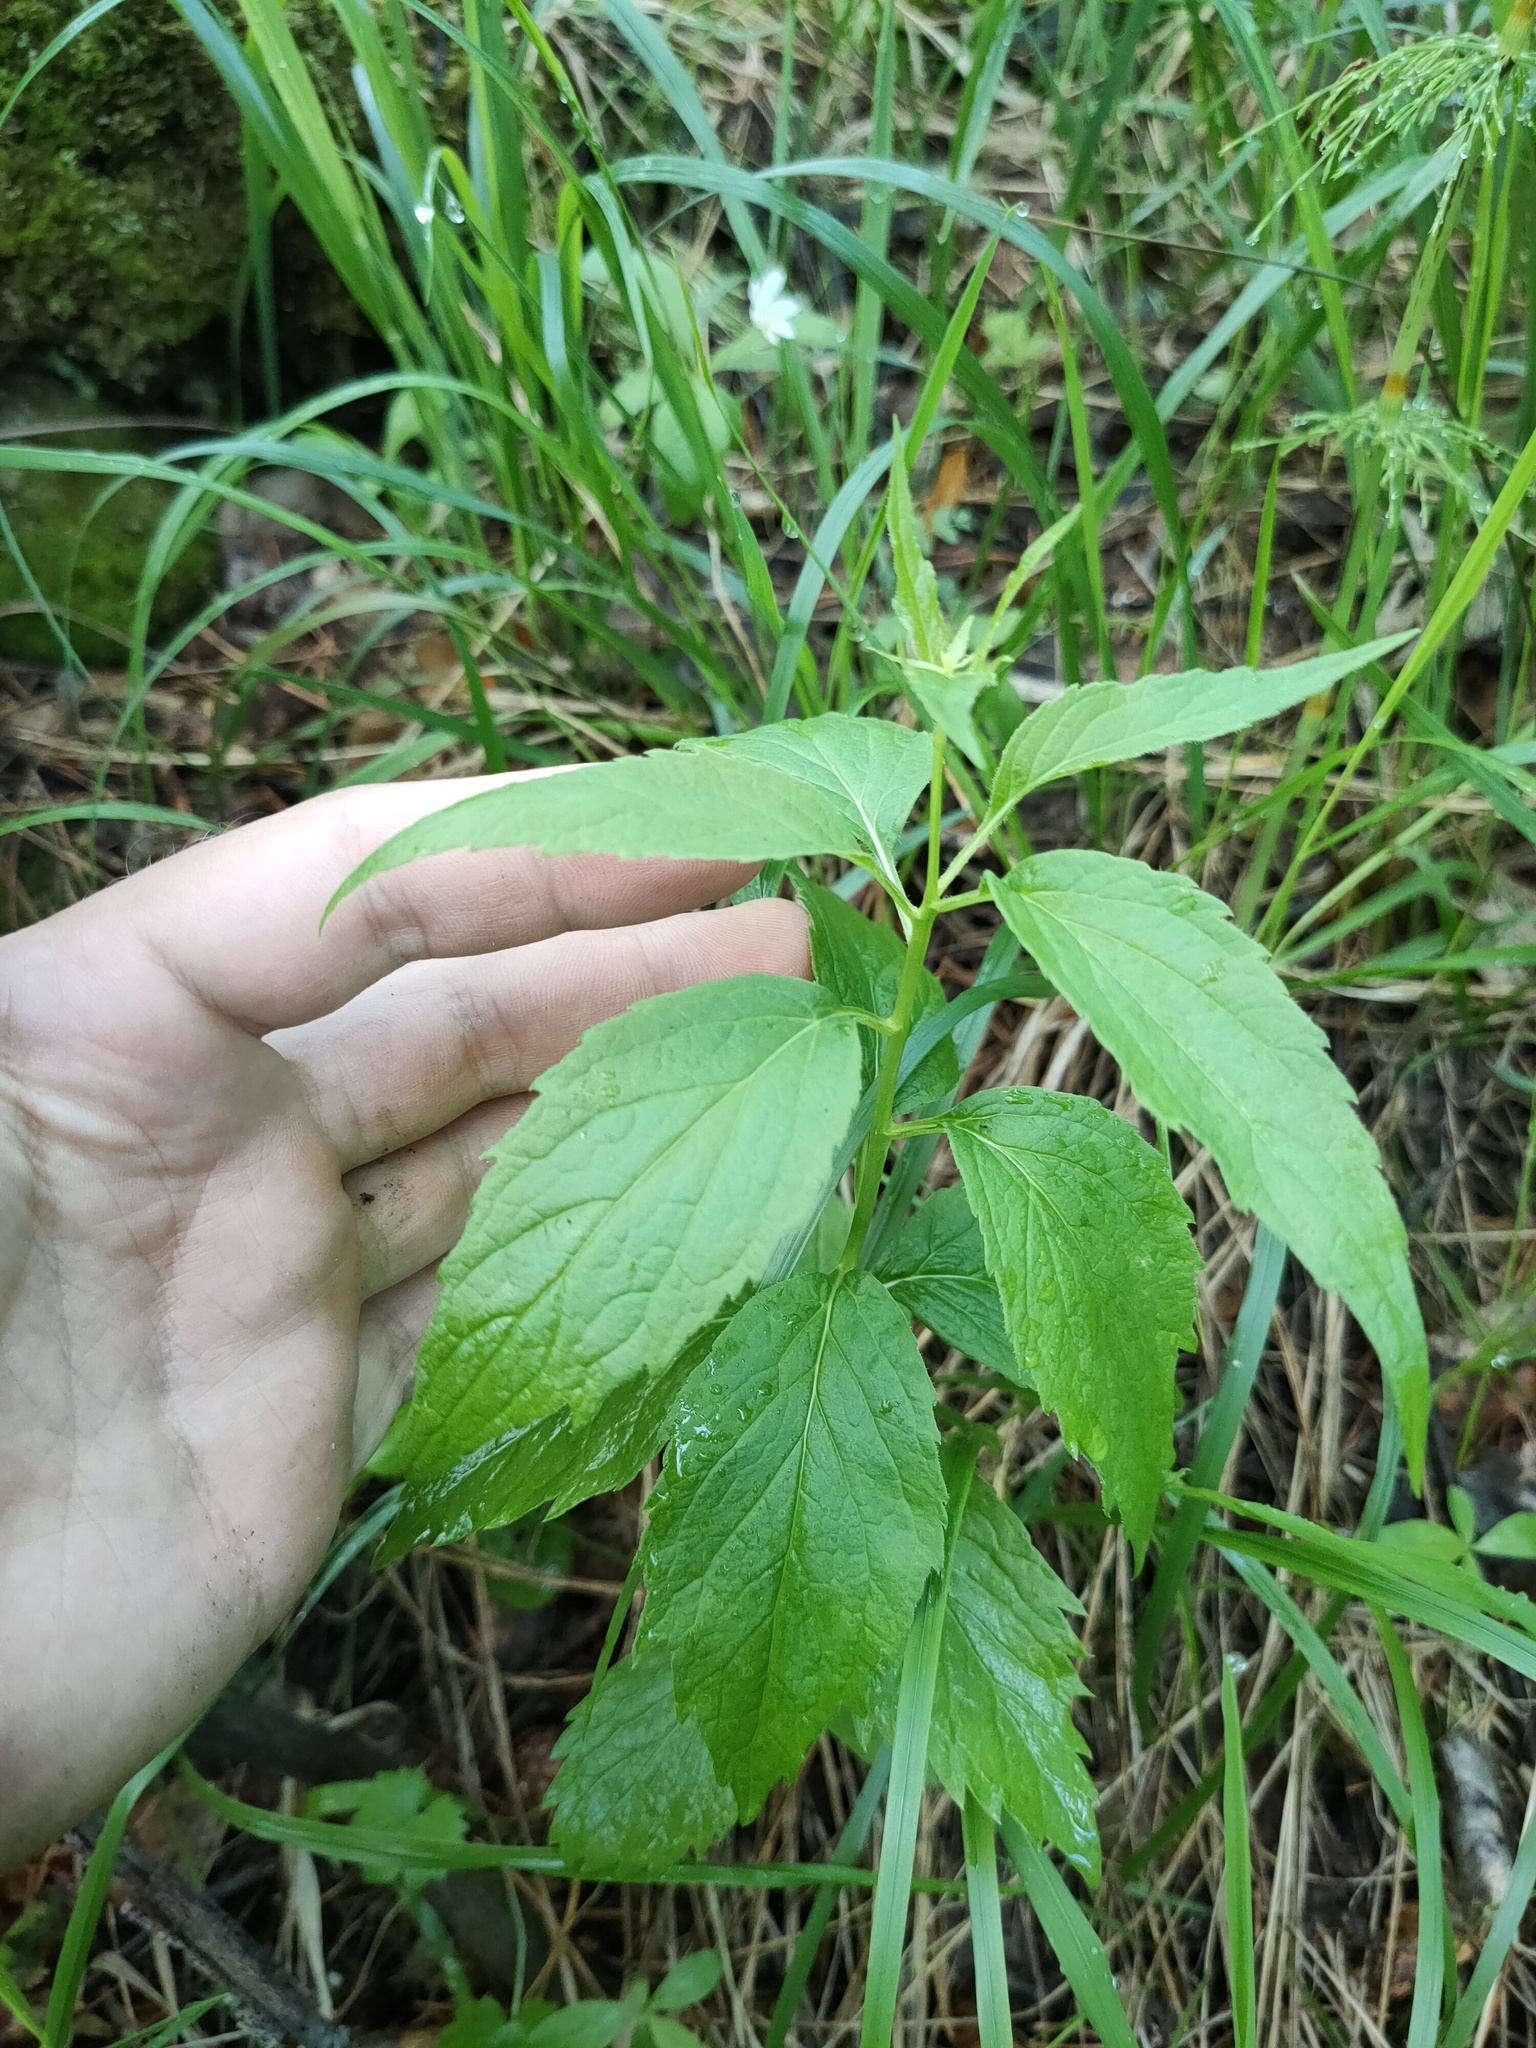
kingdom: Plantae
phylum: Tracheophyta
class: Magnoliopsida
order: Asterales
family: Campanulaceae
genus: Adenophora
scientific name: Adenophora liliifolia
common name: Lilyleaf ladybells
